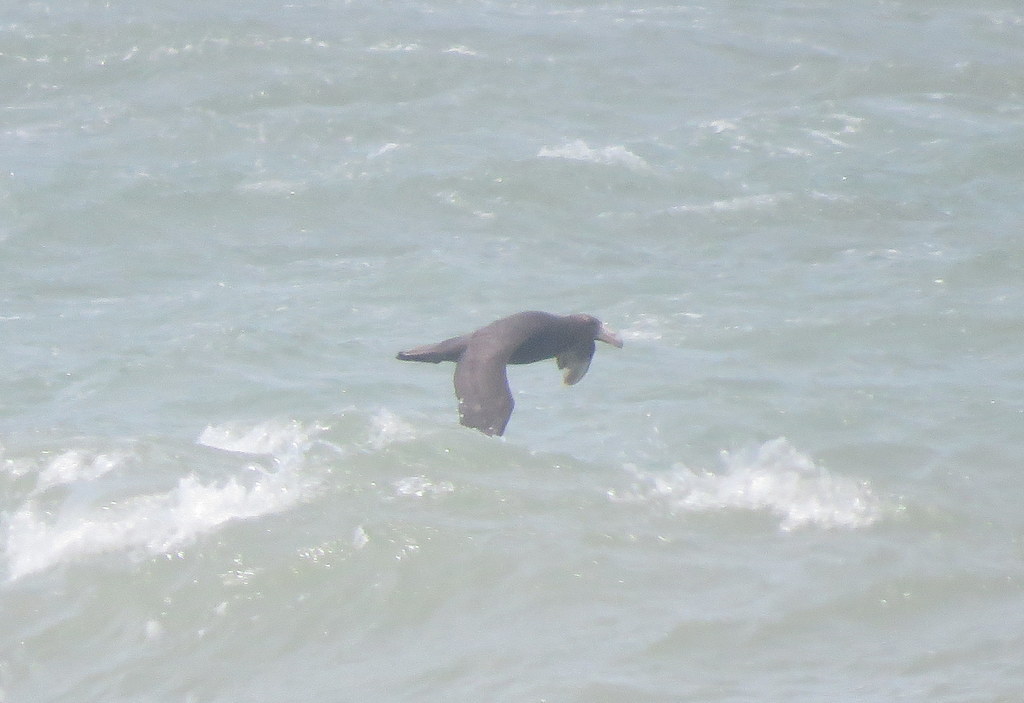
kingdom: Animalia
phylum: Chordata
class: Aves
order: Procellariiformes
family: Procellariidae
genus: Macronectes
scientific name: Macronectes giganteus
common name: Southern giant petrel
